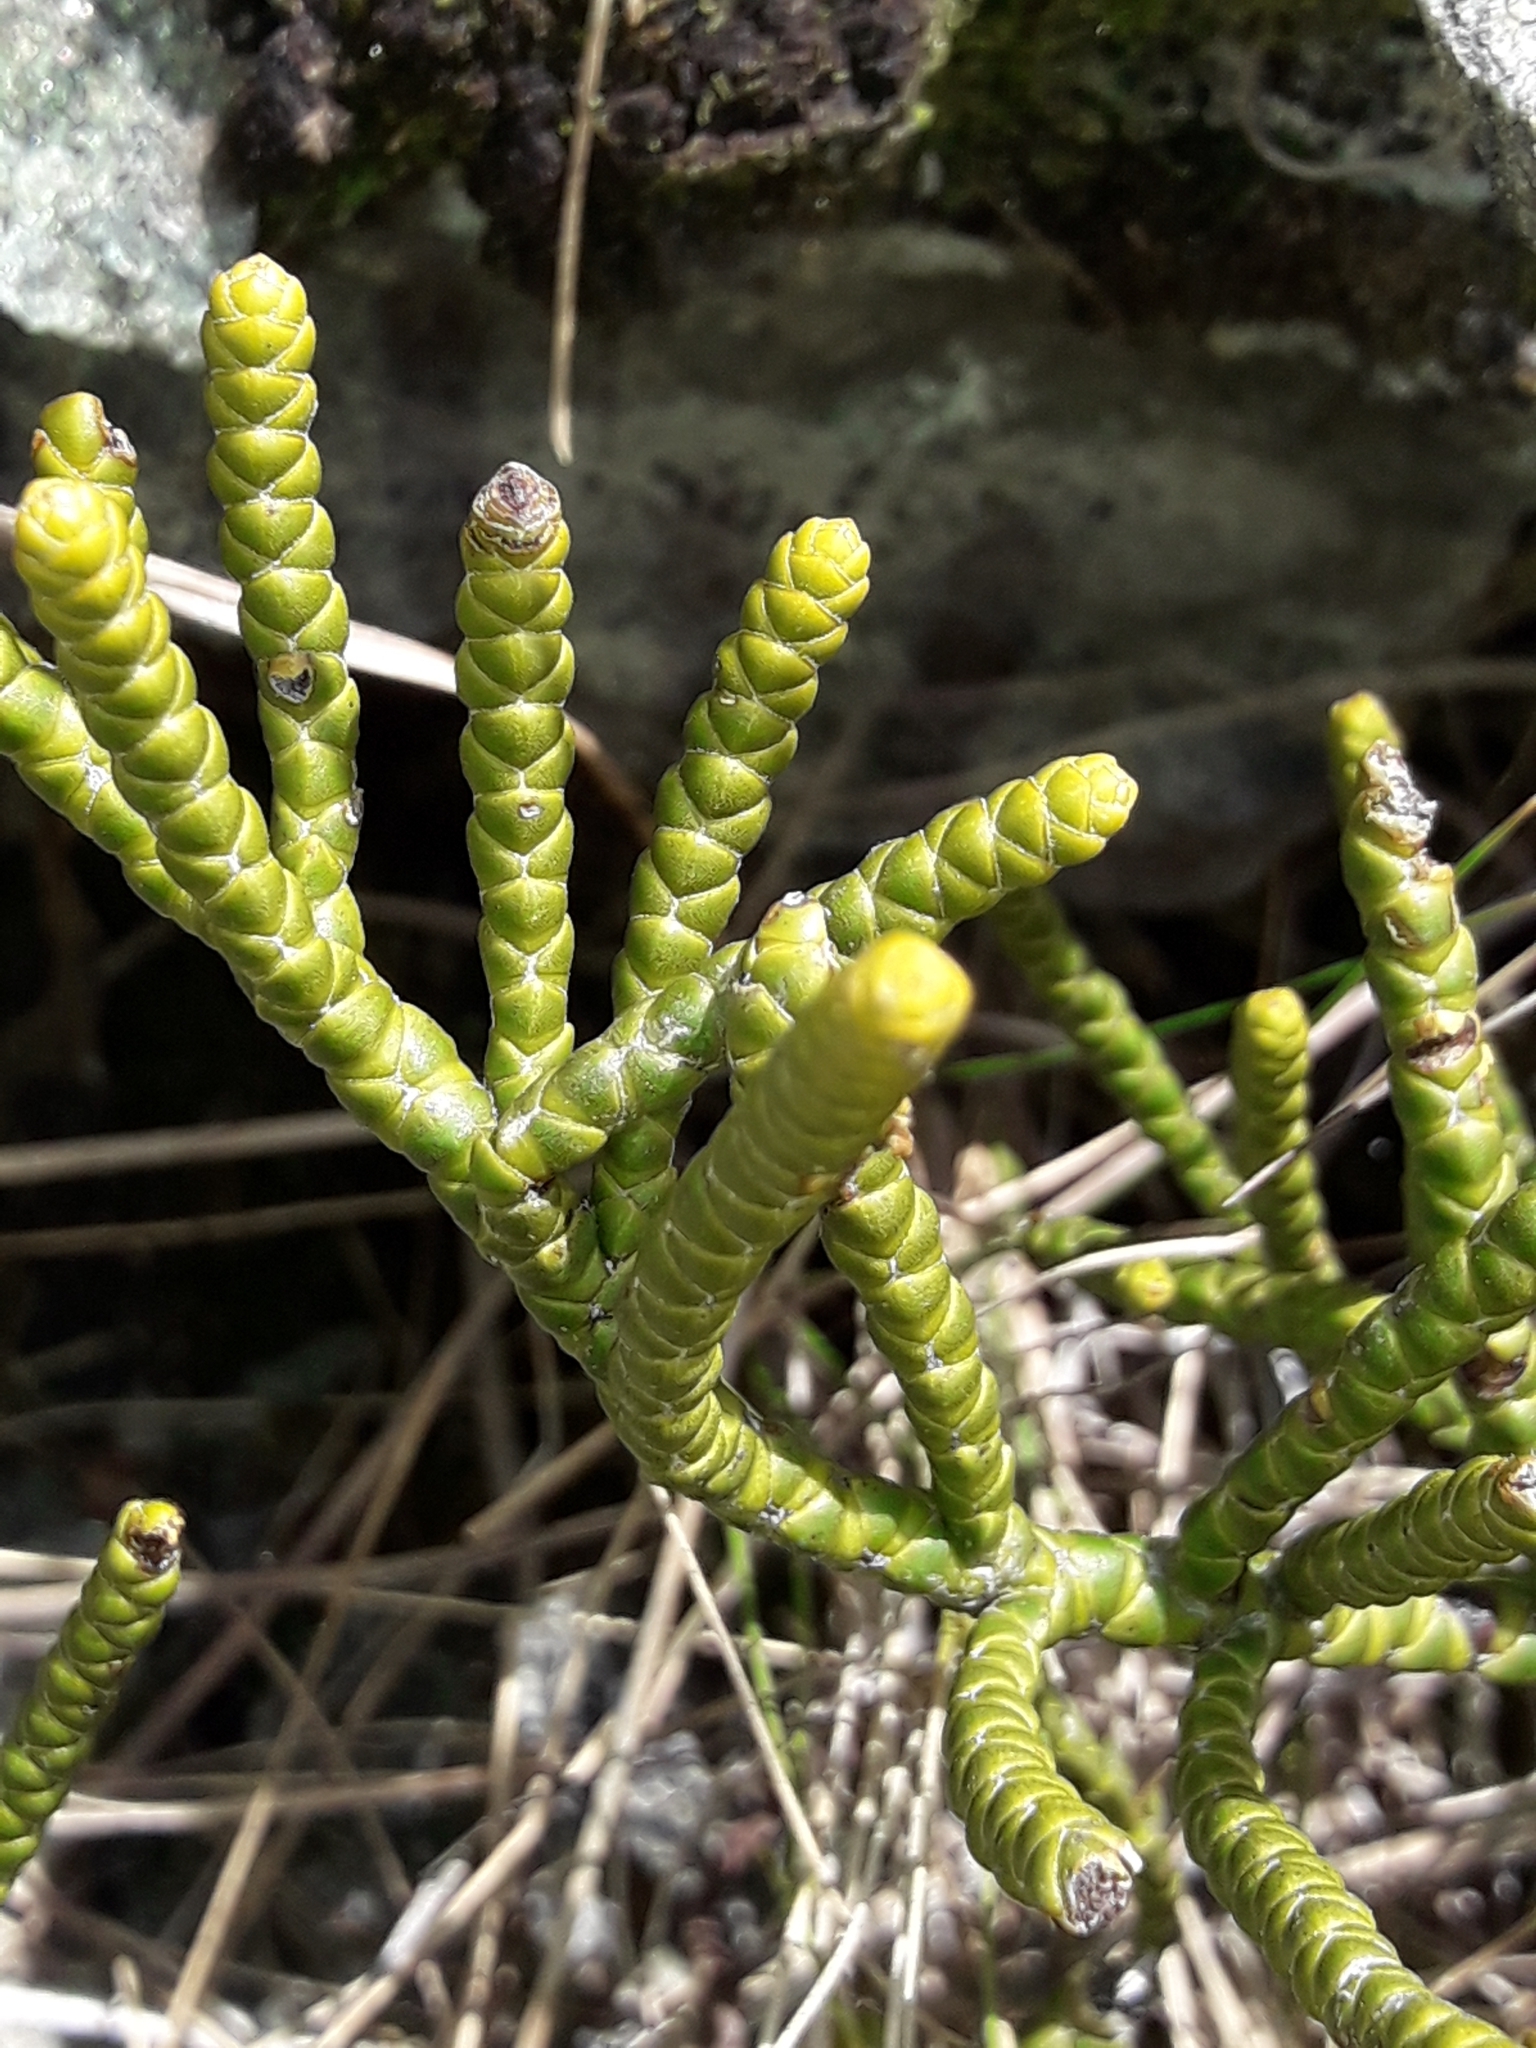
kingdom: Plantae
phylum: Tracheophyta
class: Magnoliopsida
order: Lamiales
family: Plantaginaceae
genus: Veronica
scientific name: Veronica hectorii
